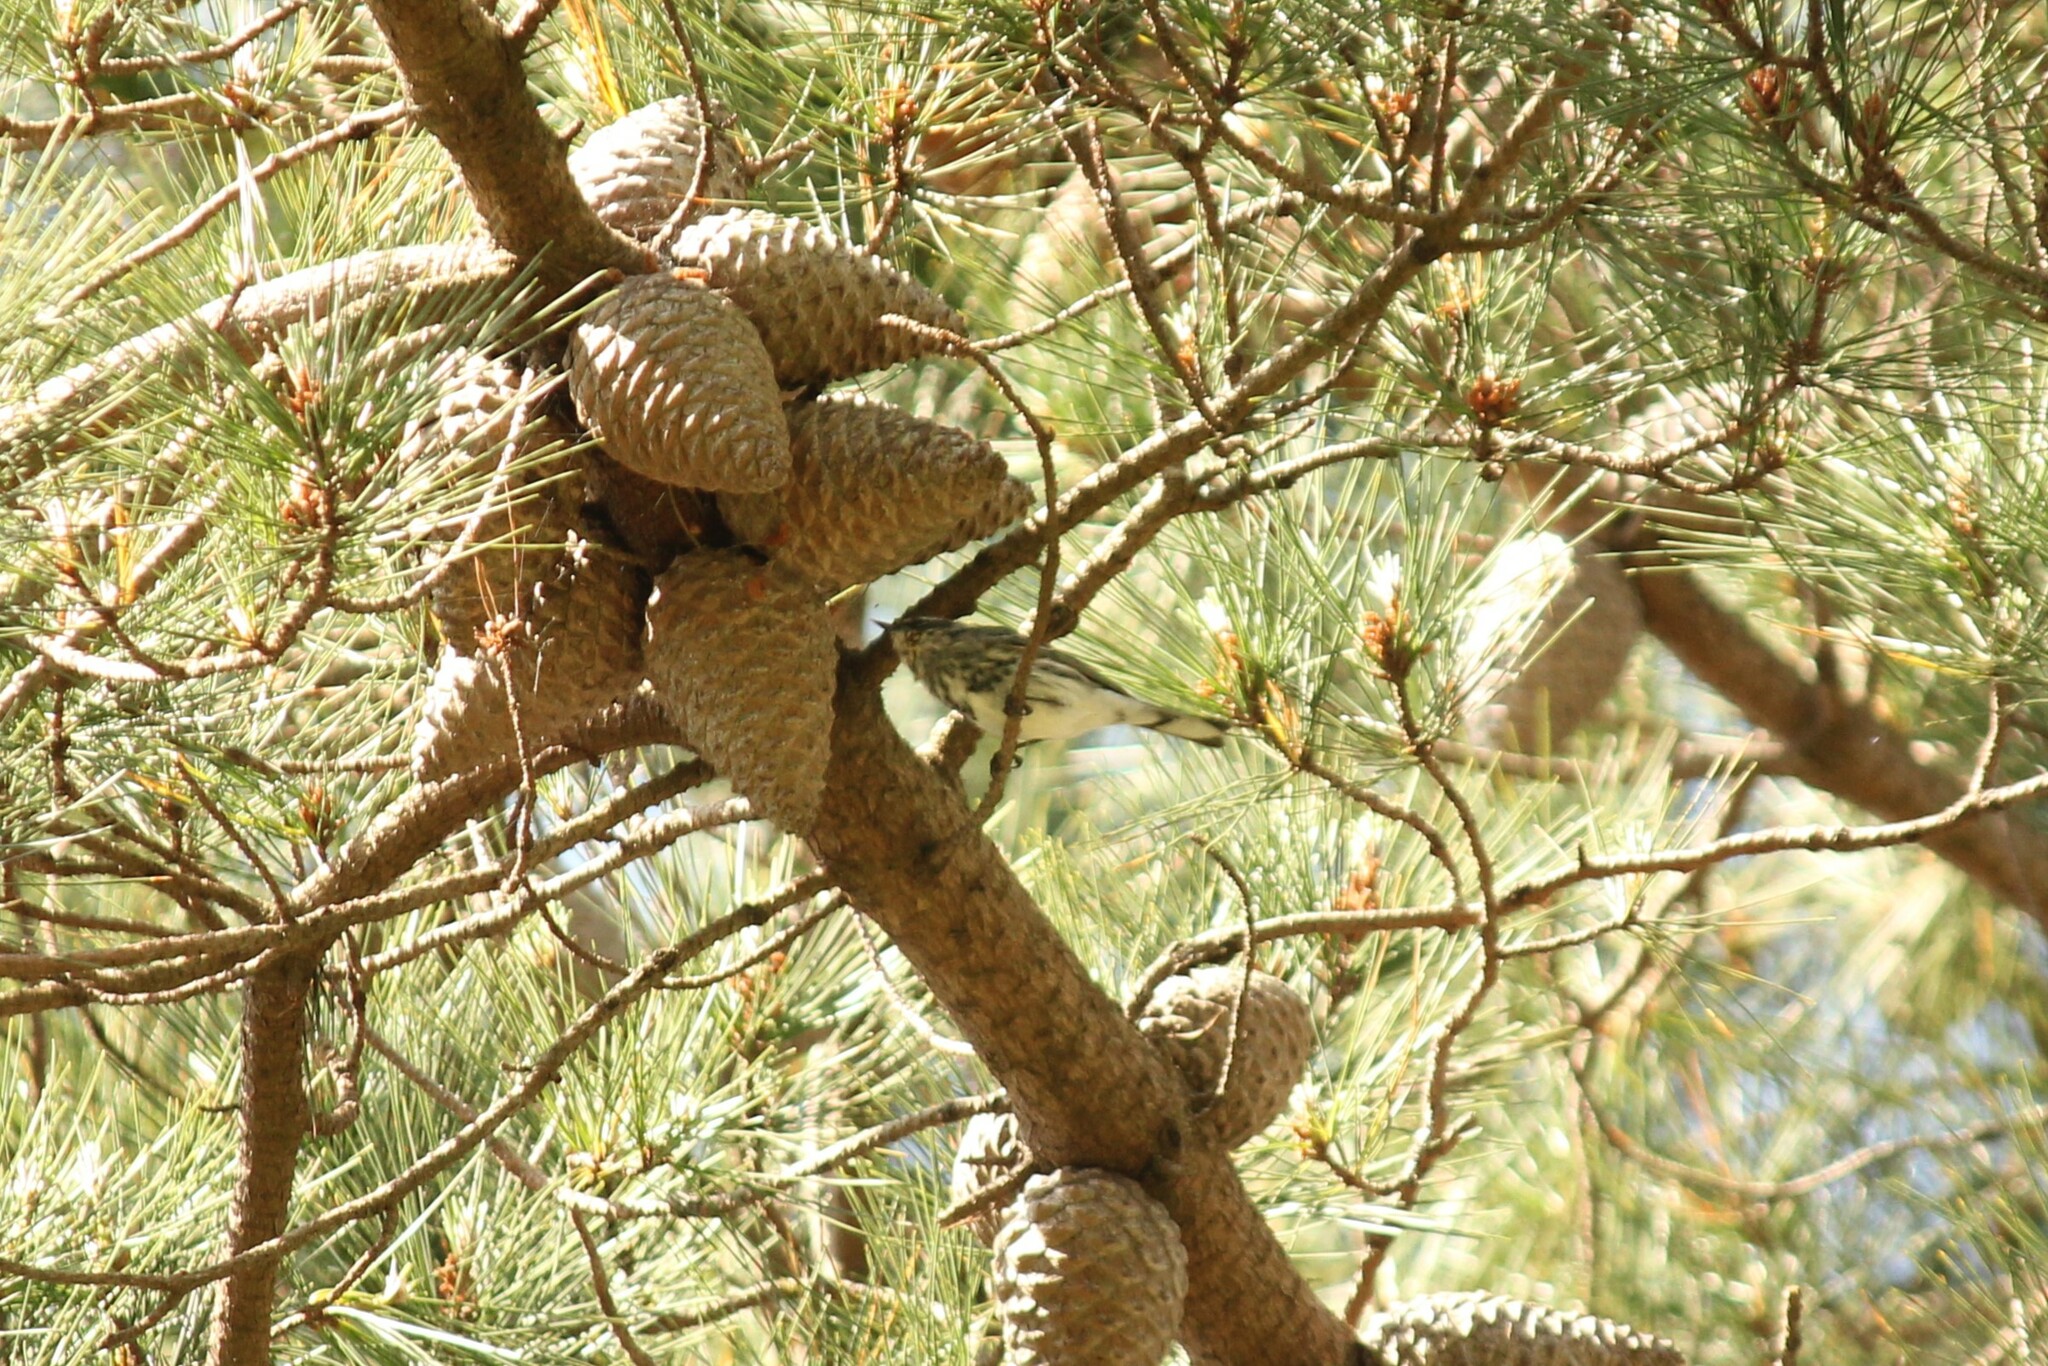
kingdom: Animalia
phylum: Chordata
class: Aves
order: Passeriformes
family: Parulidae
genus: Setophaga
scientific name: Setophaga coronata
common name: Myrtle warbler
